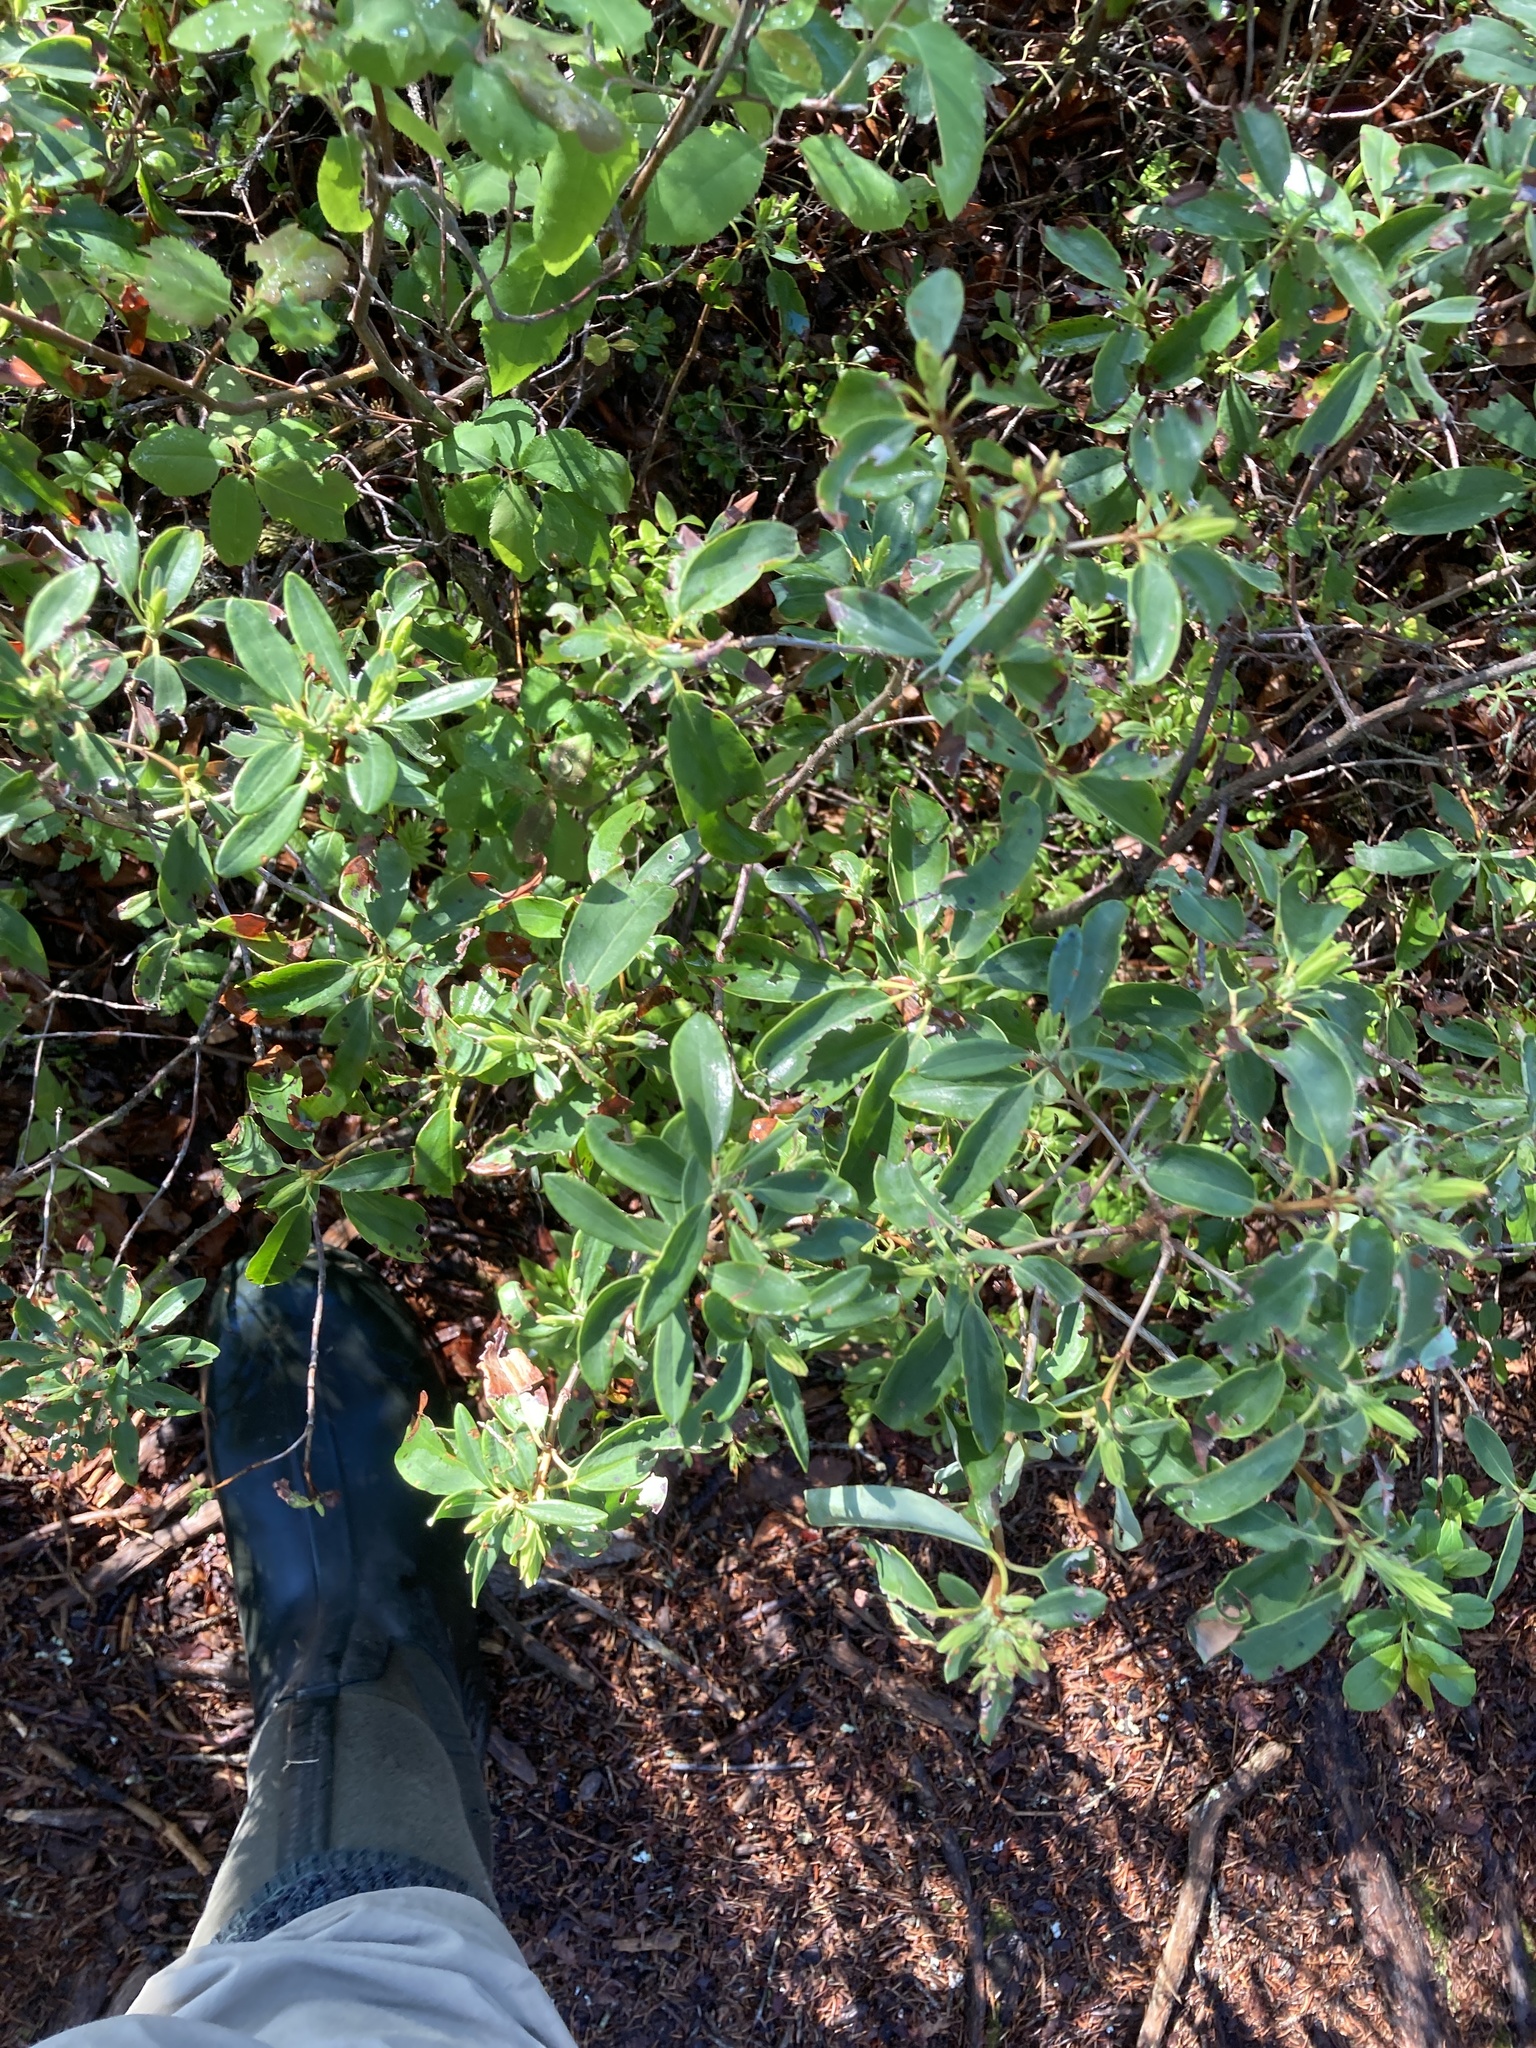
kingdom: Plantae
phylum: Tracheophyta
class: Magnoliopsida
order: Ericales
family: Ericaceae
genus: Kalmia
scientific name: Kalmia angustifolia
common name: Sheep-laurel
